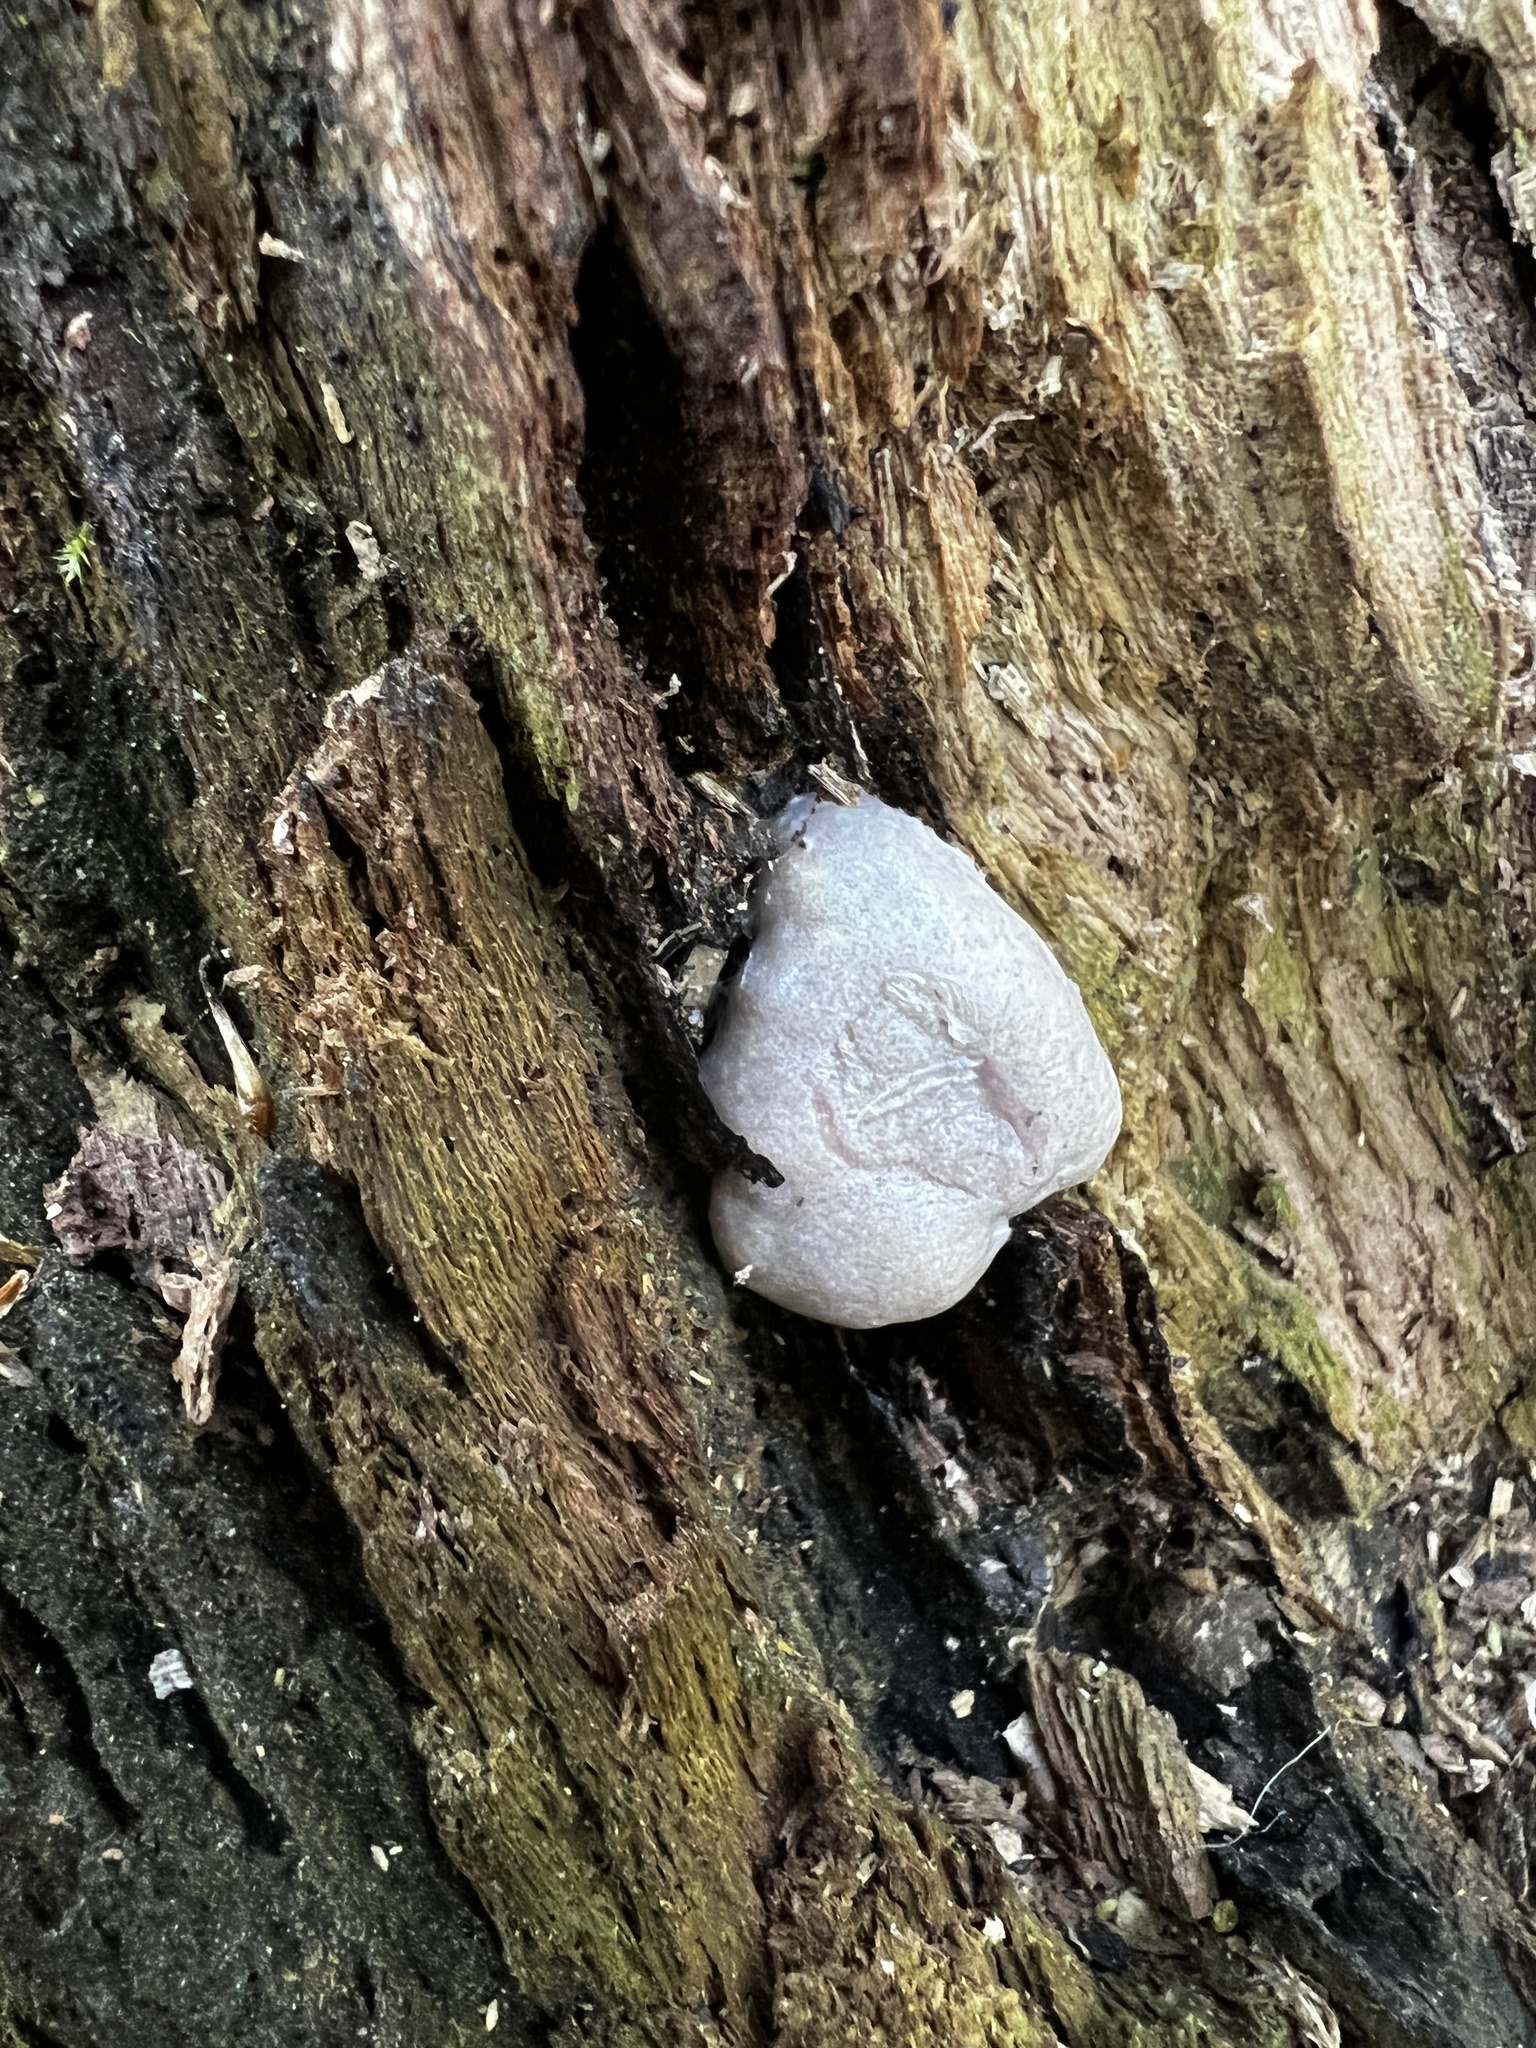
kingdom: Protozoa
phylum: Mycetozoa
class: Myxomycetes
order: Cribrariales
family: Tubiferaceae
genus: Reticularia
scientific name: Reticularia lycoperdon
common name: False puffball
